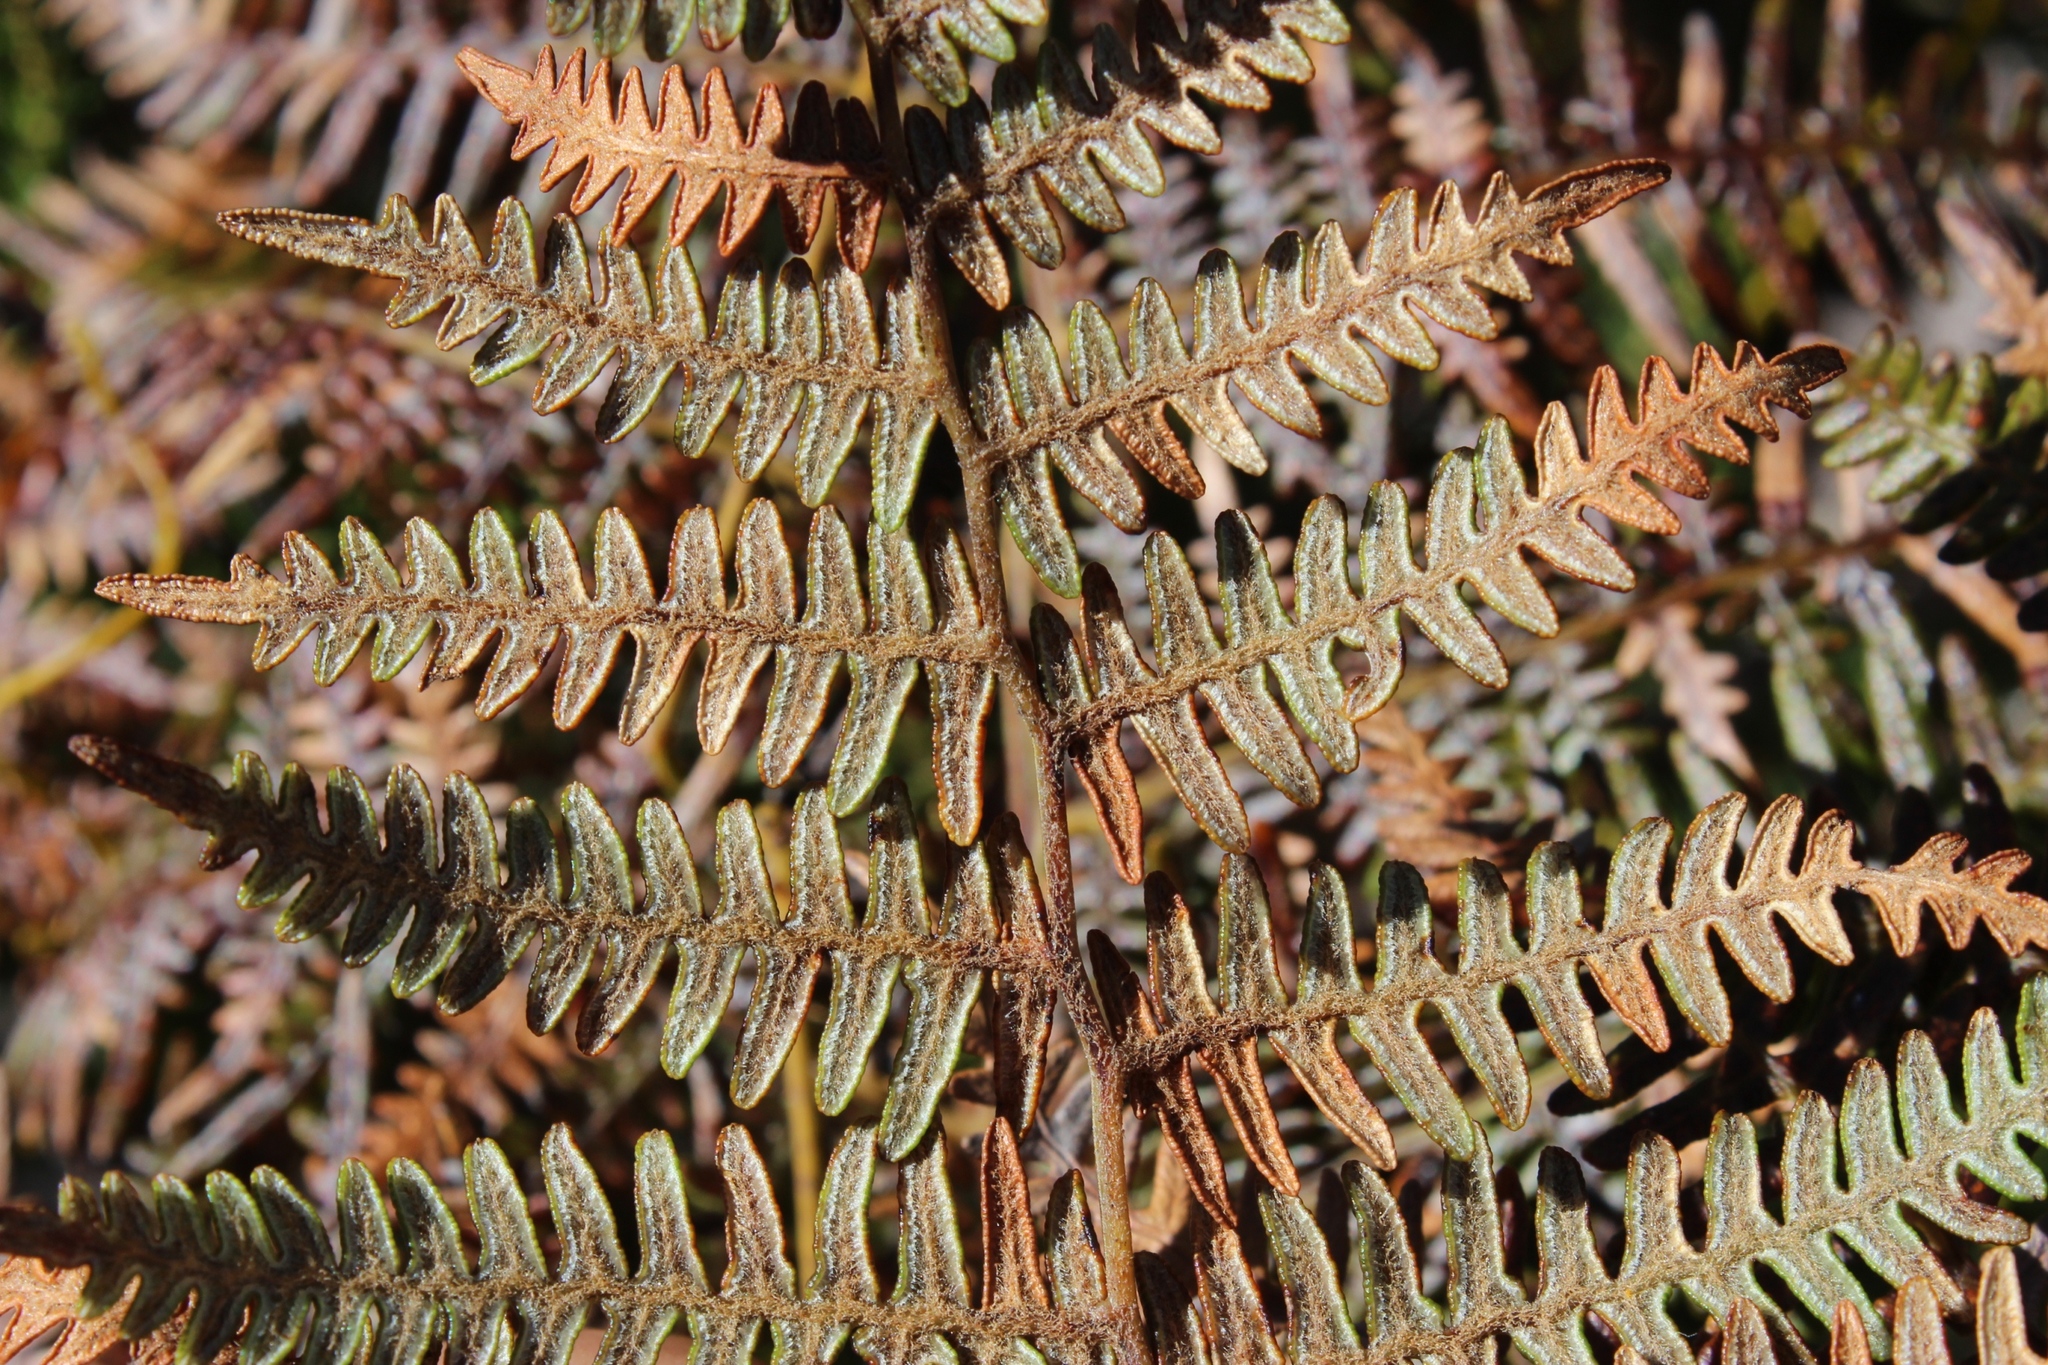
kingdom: Plantae
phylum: Tracheophyta
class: Polypodiopsida
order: Polypodiales
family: Dennstaedtiaceae
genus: Pteridium
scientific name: Pteridium aquilinum
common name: Bracken
